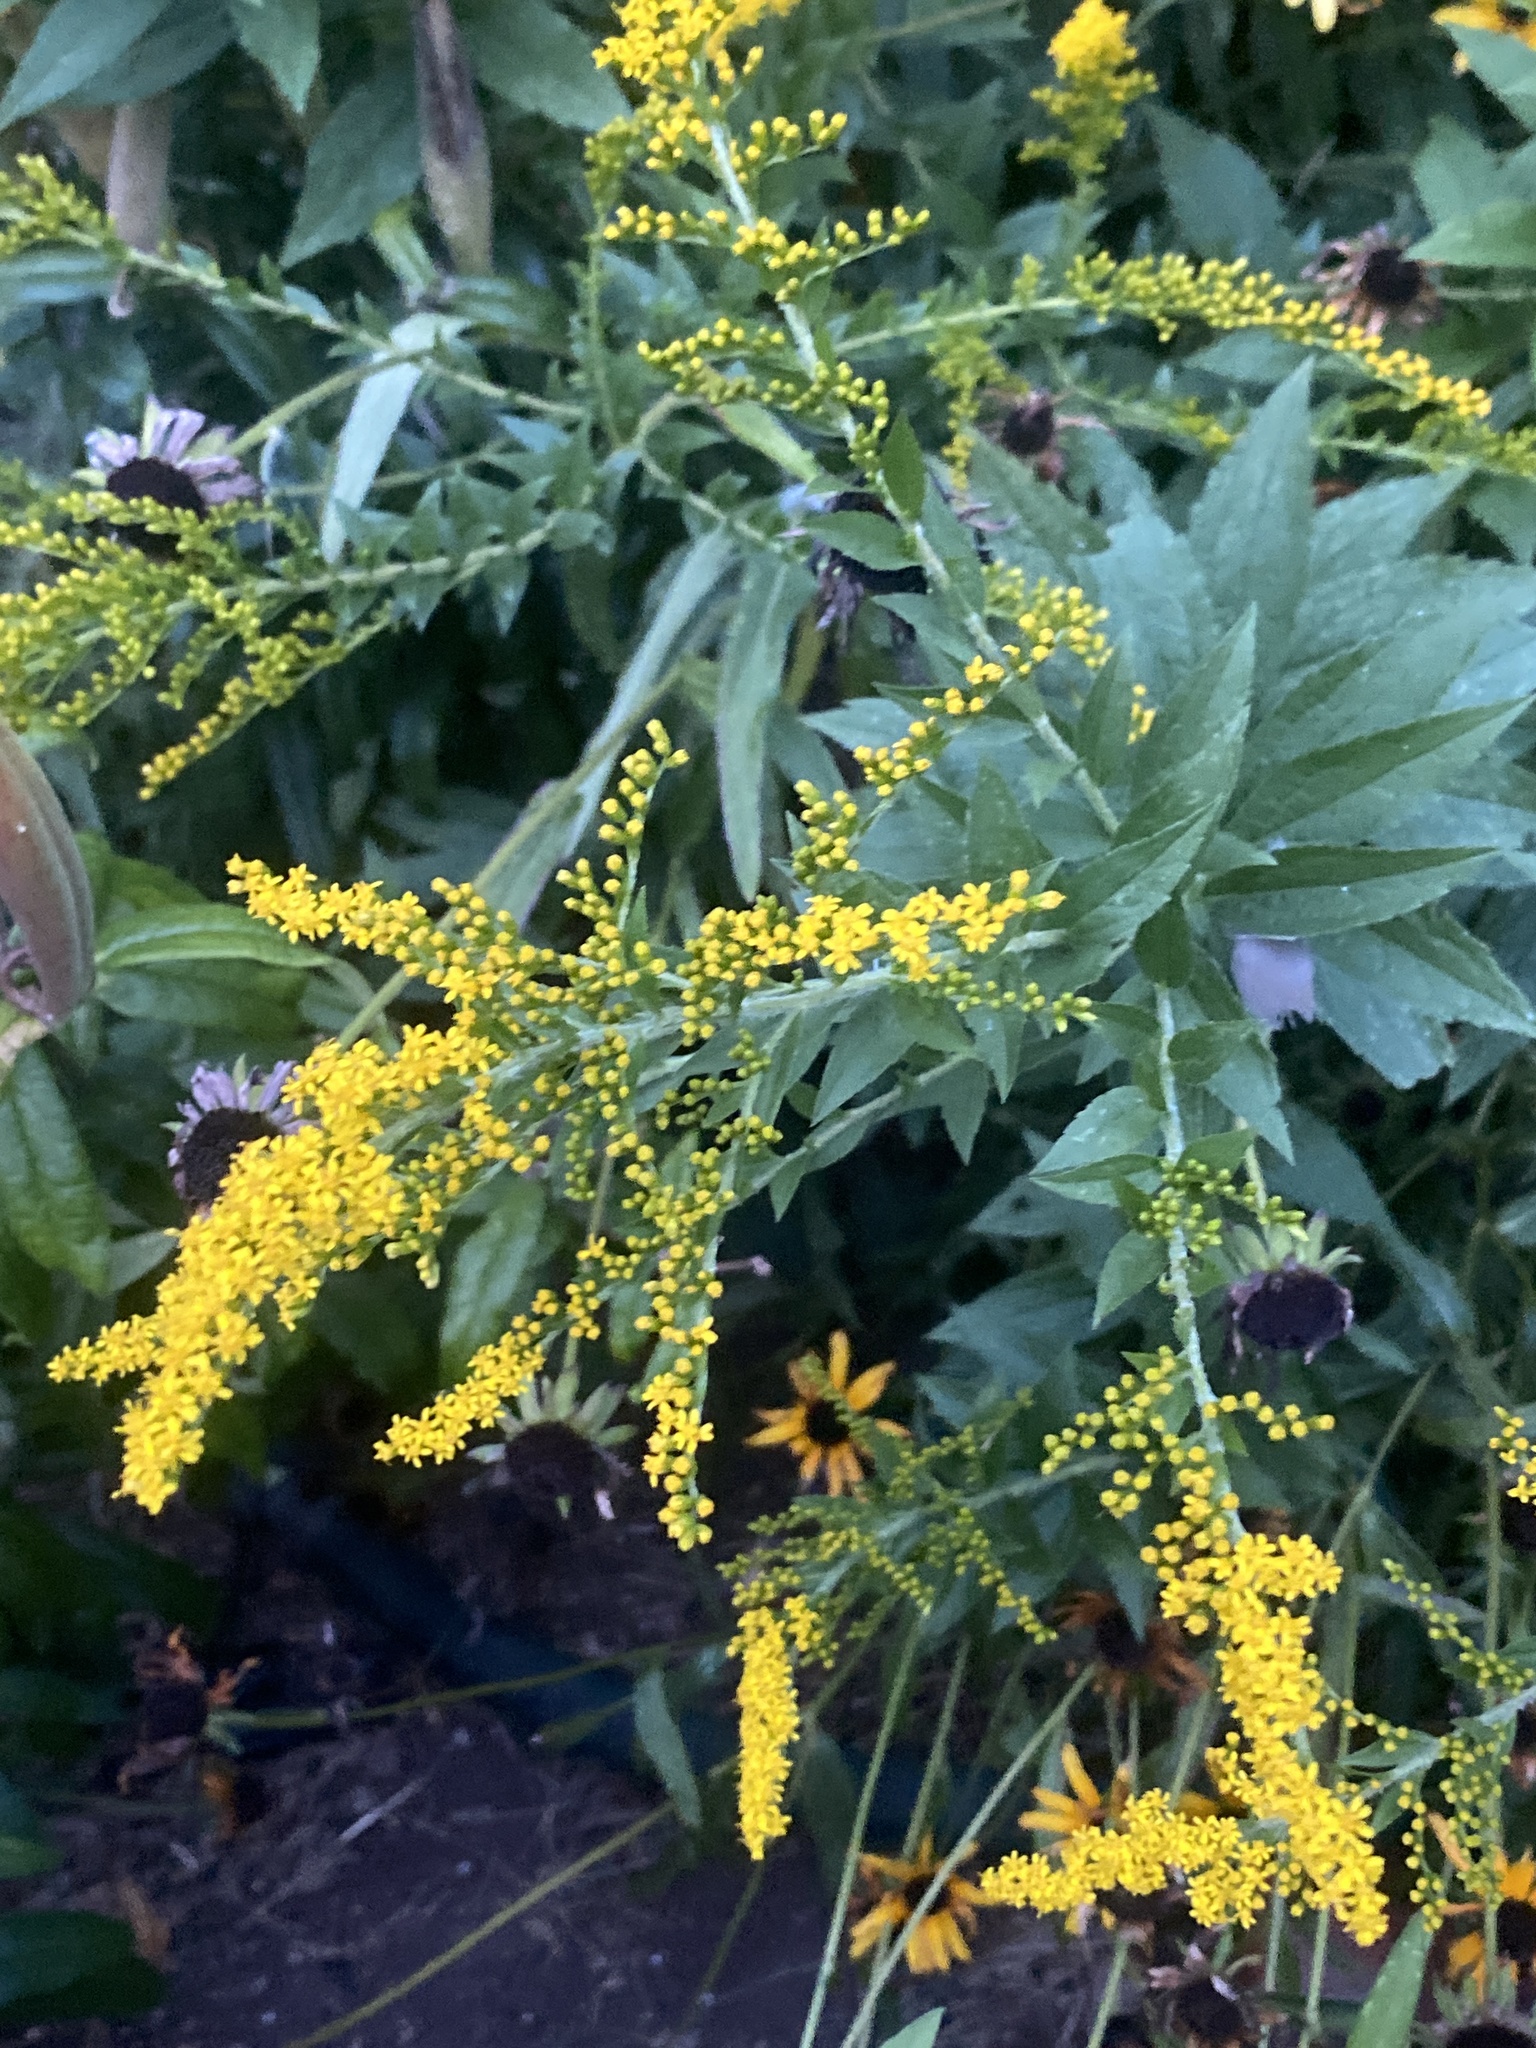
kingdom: Plantae
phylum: Tracheophyta
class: Magnoliopsida
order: Asterales
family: Asteraceae
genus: Solidago
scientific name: Solidago rugosa
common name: Rough-stemmed goldenrod
